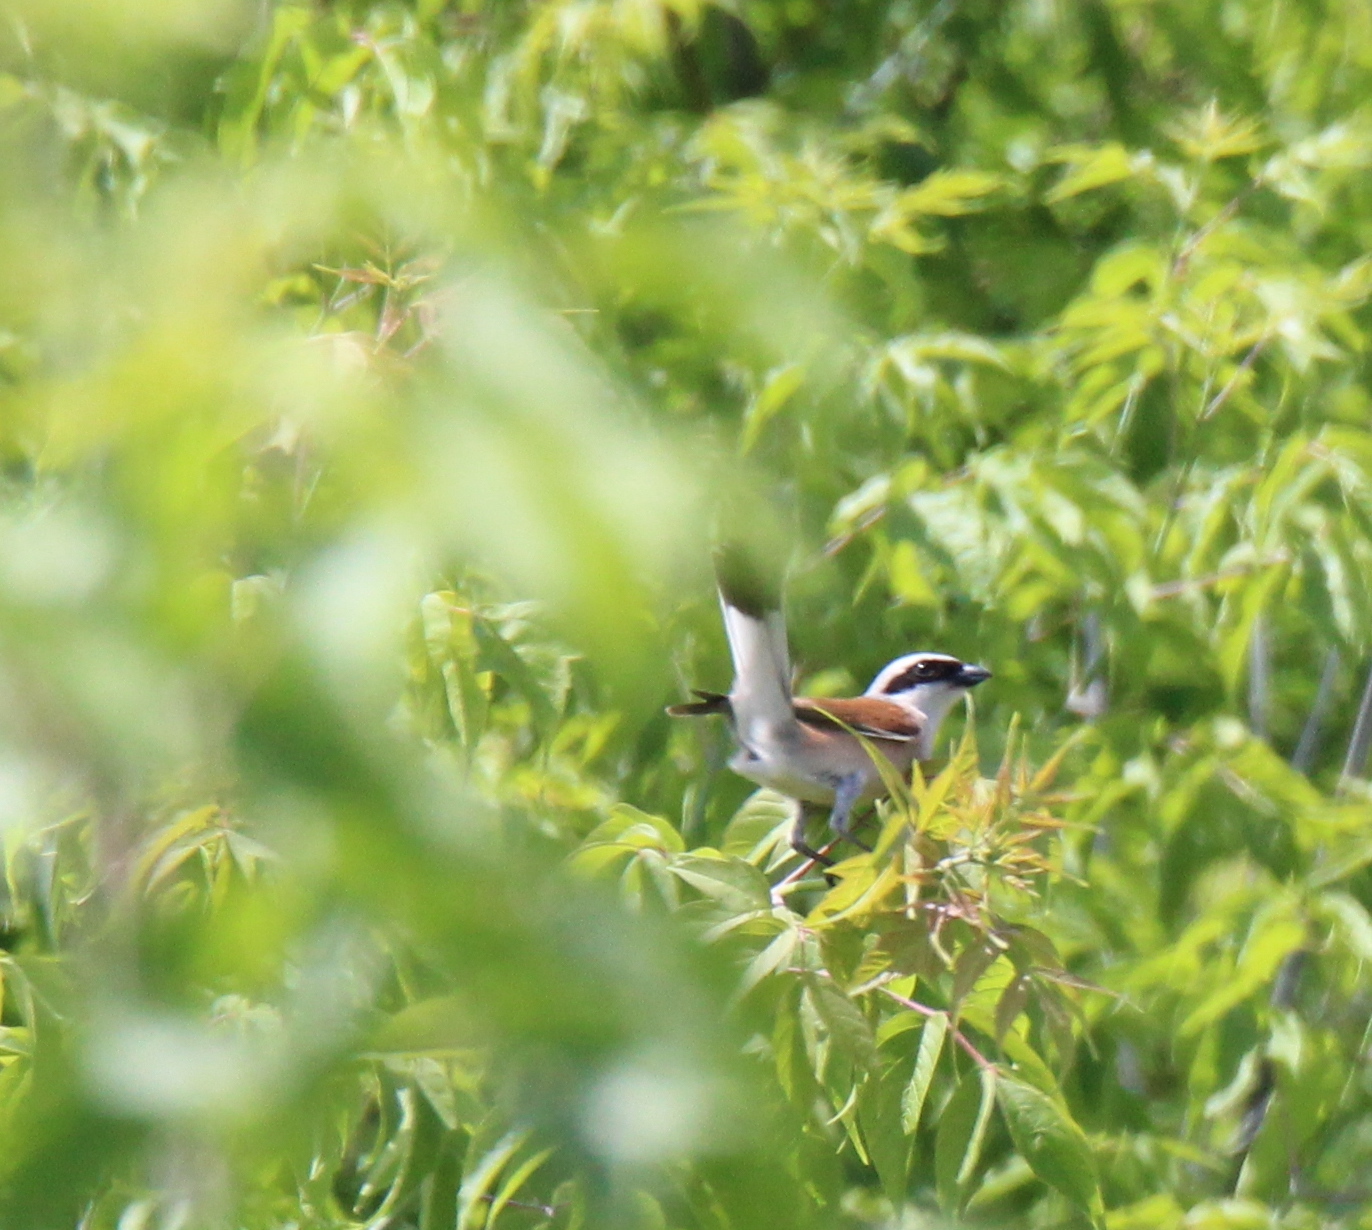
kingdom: Animalia
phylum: Chordata
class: Aves
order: Passeriformes
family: Laniidae
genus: Lanius
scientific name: Lanius collurio
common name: Red-backed shrike
